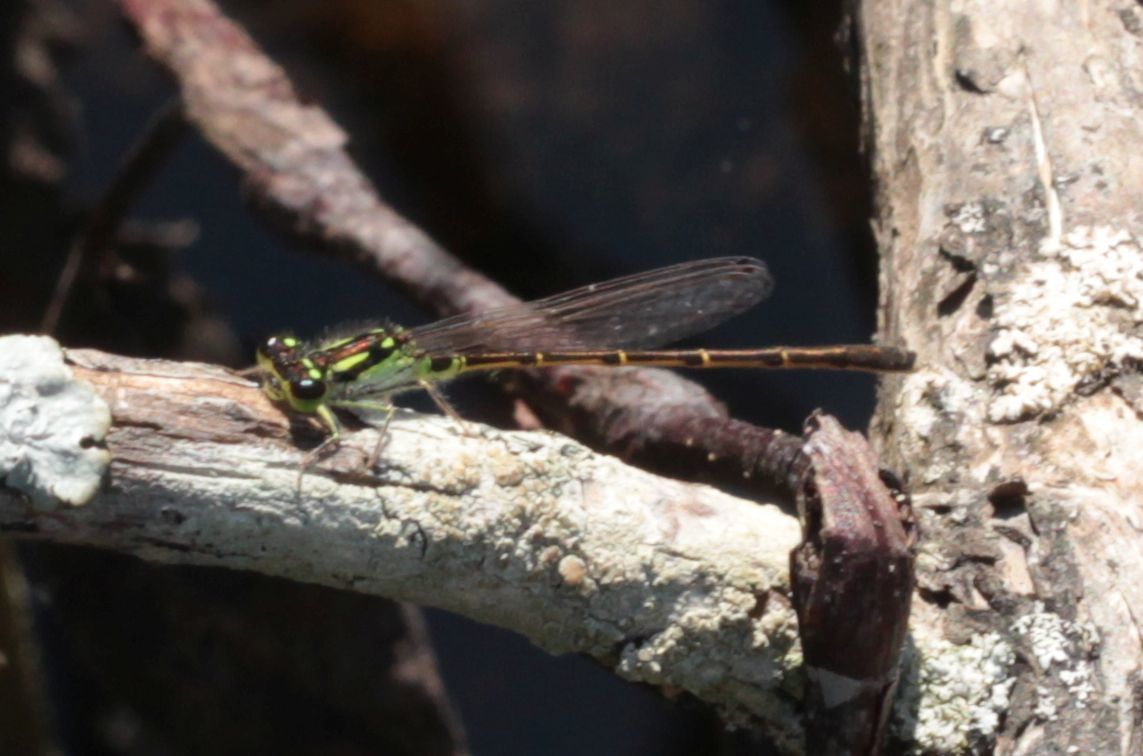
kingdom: Animalia
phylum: Arthropoda
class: Insecta
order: Odonata
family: Coenagrionidae
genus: Ischnura
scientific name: Ischnura posita
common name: Fragile forktail
